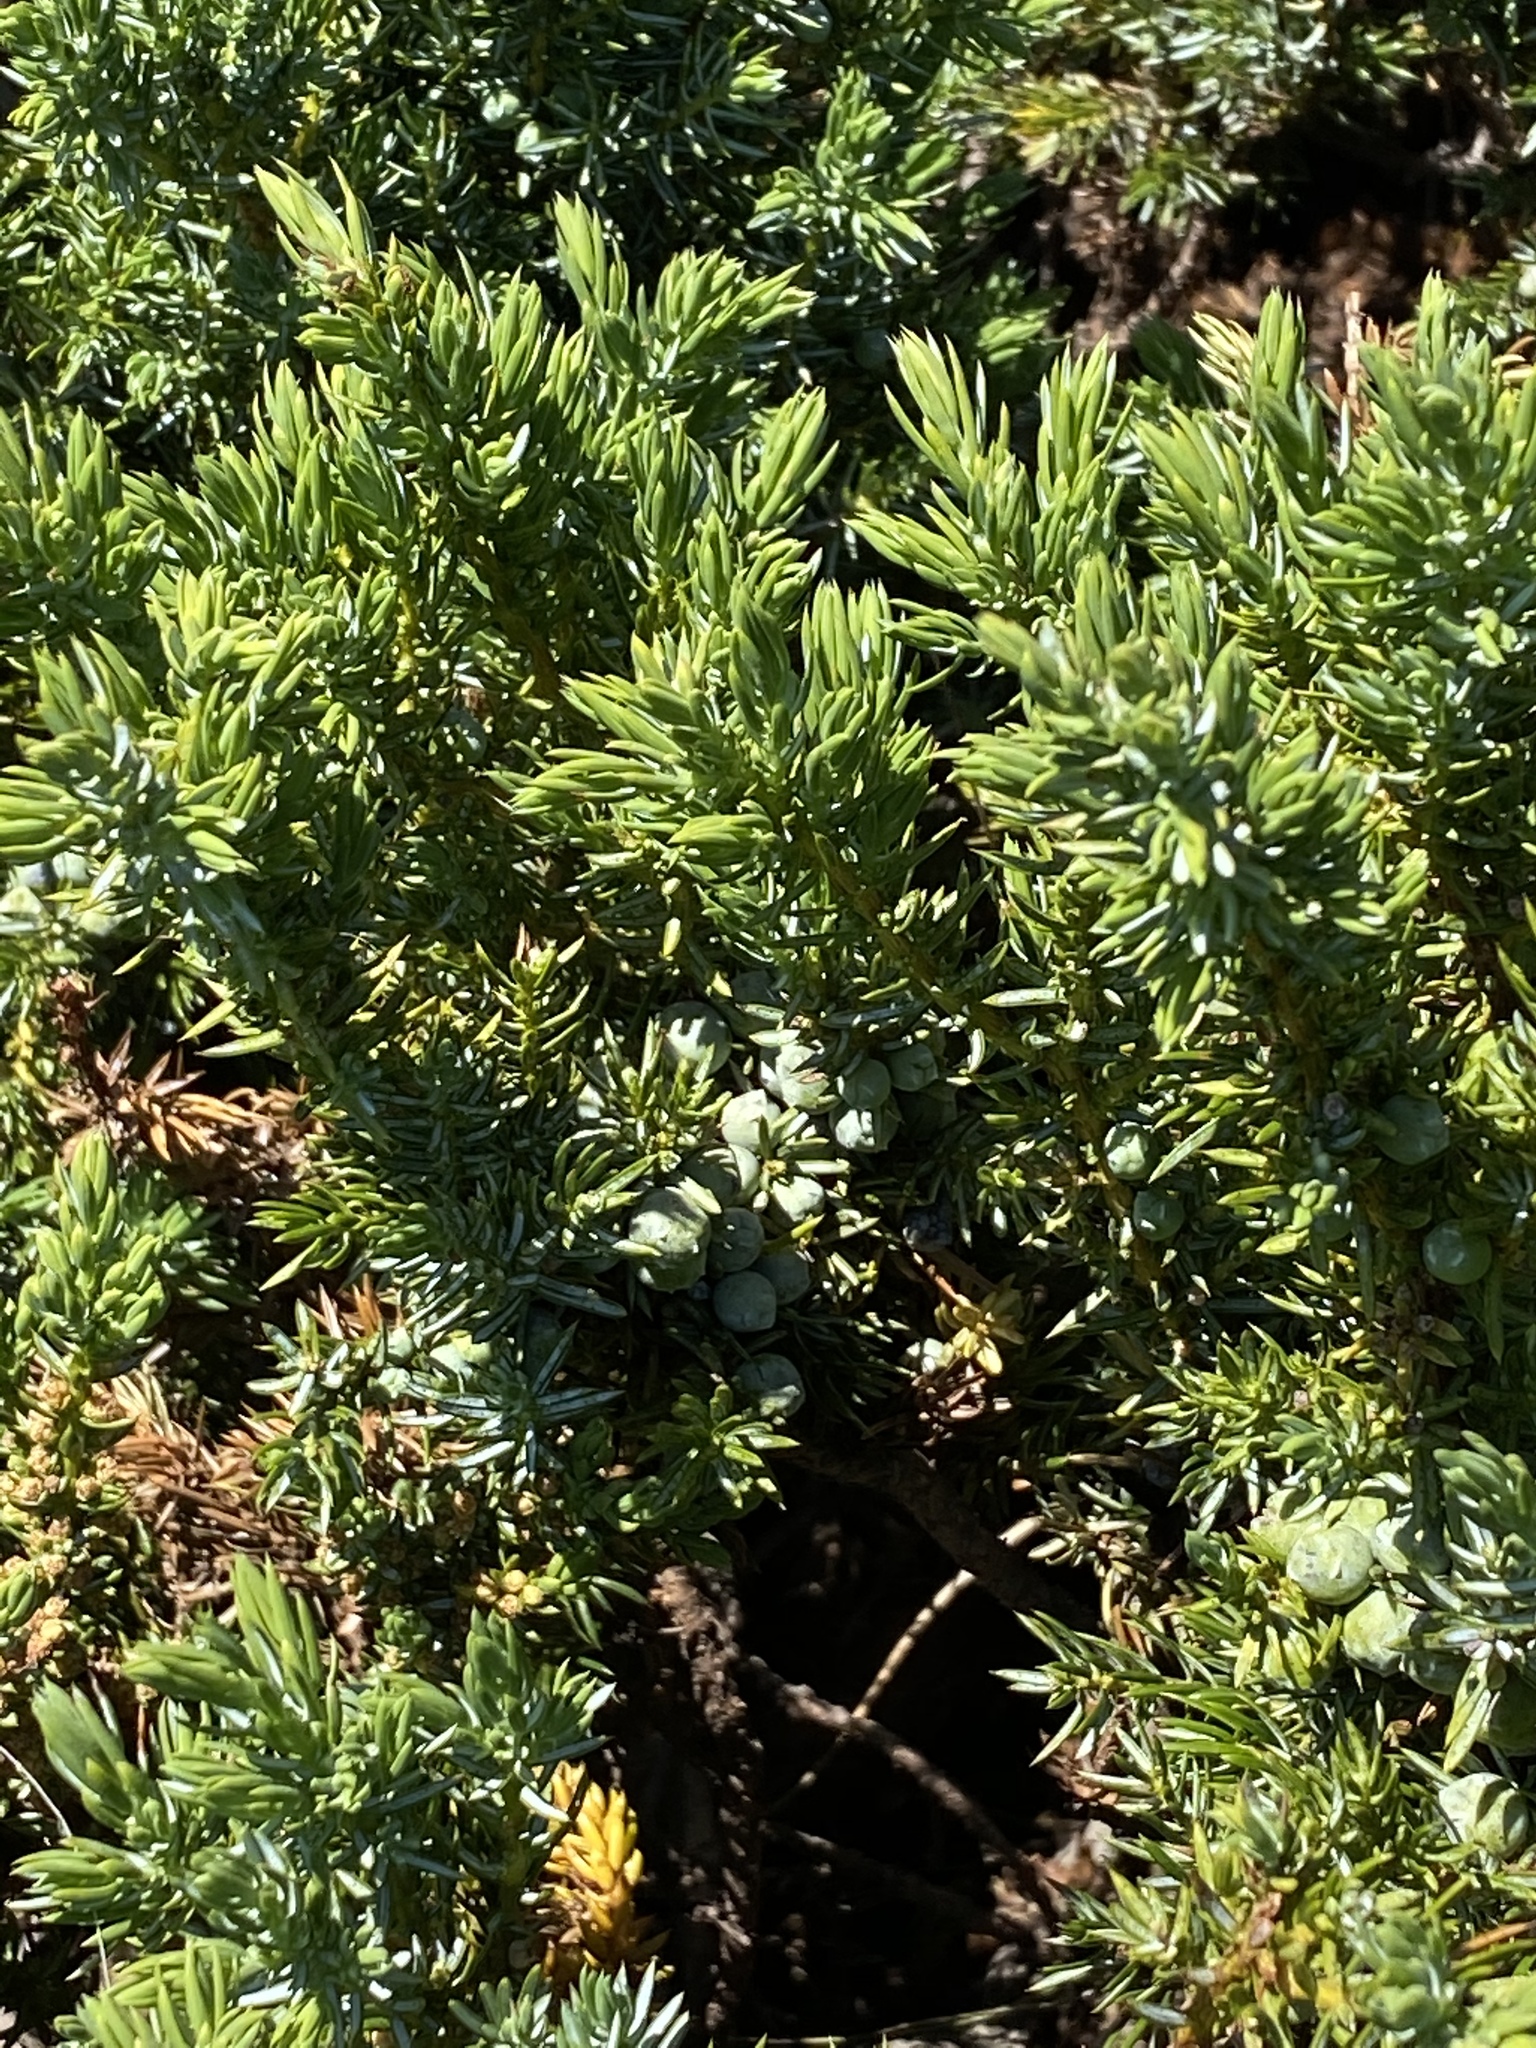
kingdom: Plantae
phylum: Tracheophyta
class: Pinopsida
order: Pinales
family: Cupressaceae
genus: Juniperus
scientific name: Juniperus communis
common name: Common juniper
